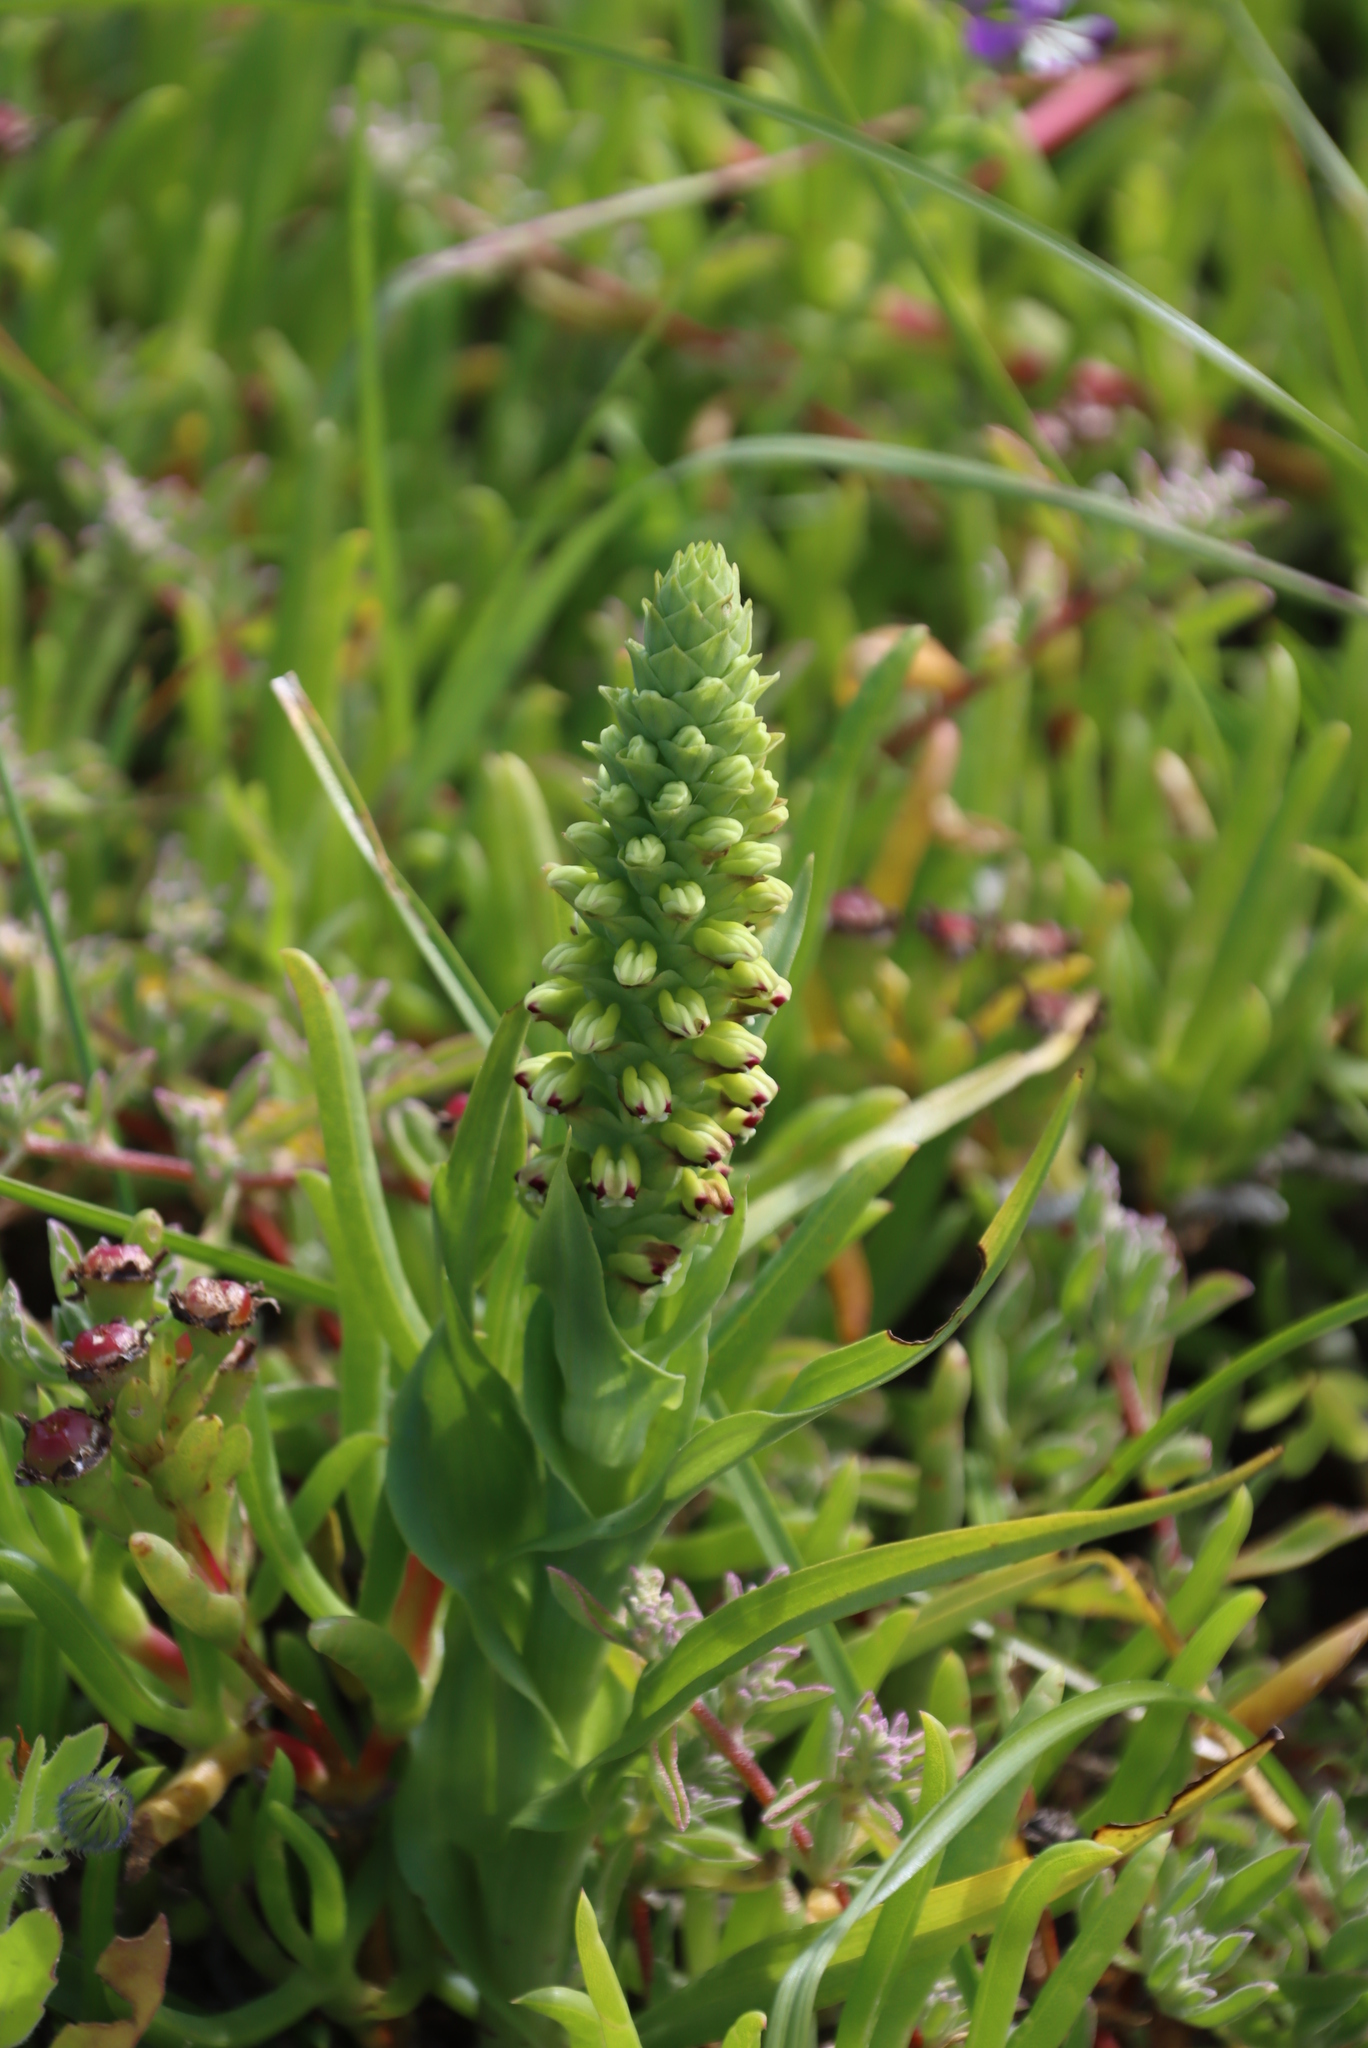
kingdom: Plantae
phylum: Tracheophyta
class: Liliopsida
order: Asparagales
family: Orchidaceae
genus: Corycium
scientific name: Corycium orobanchoides
